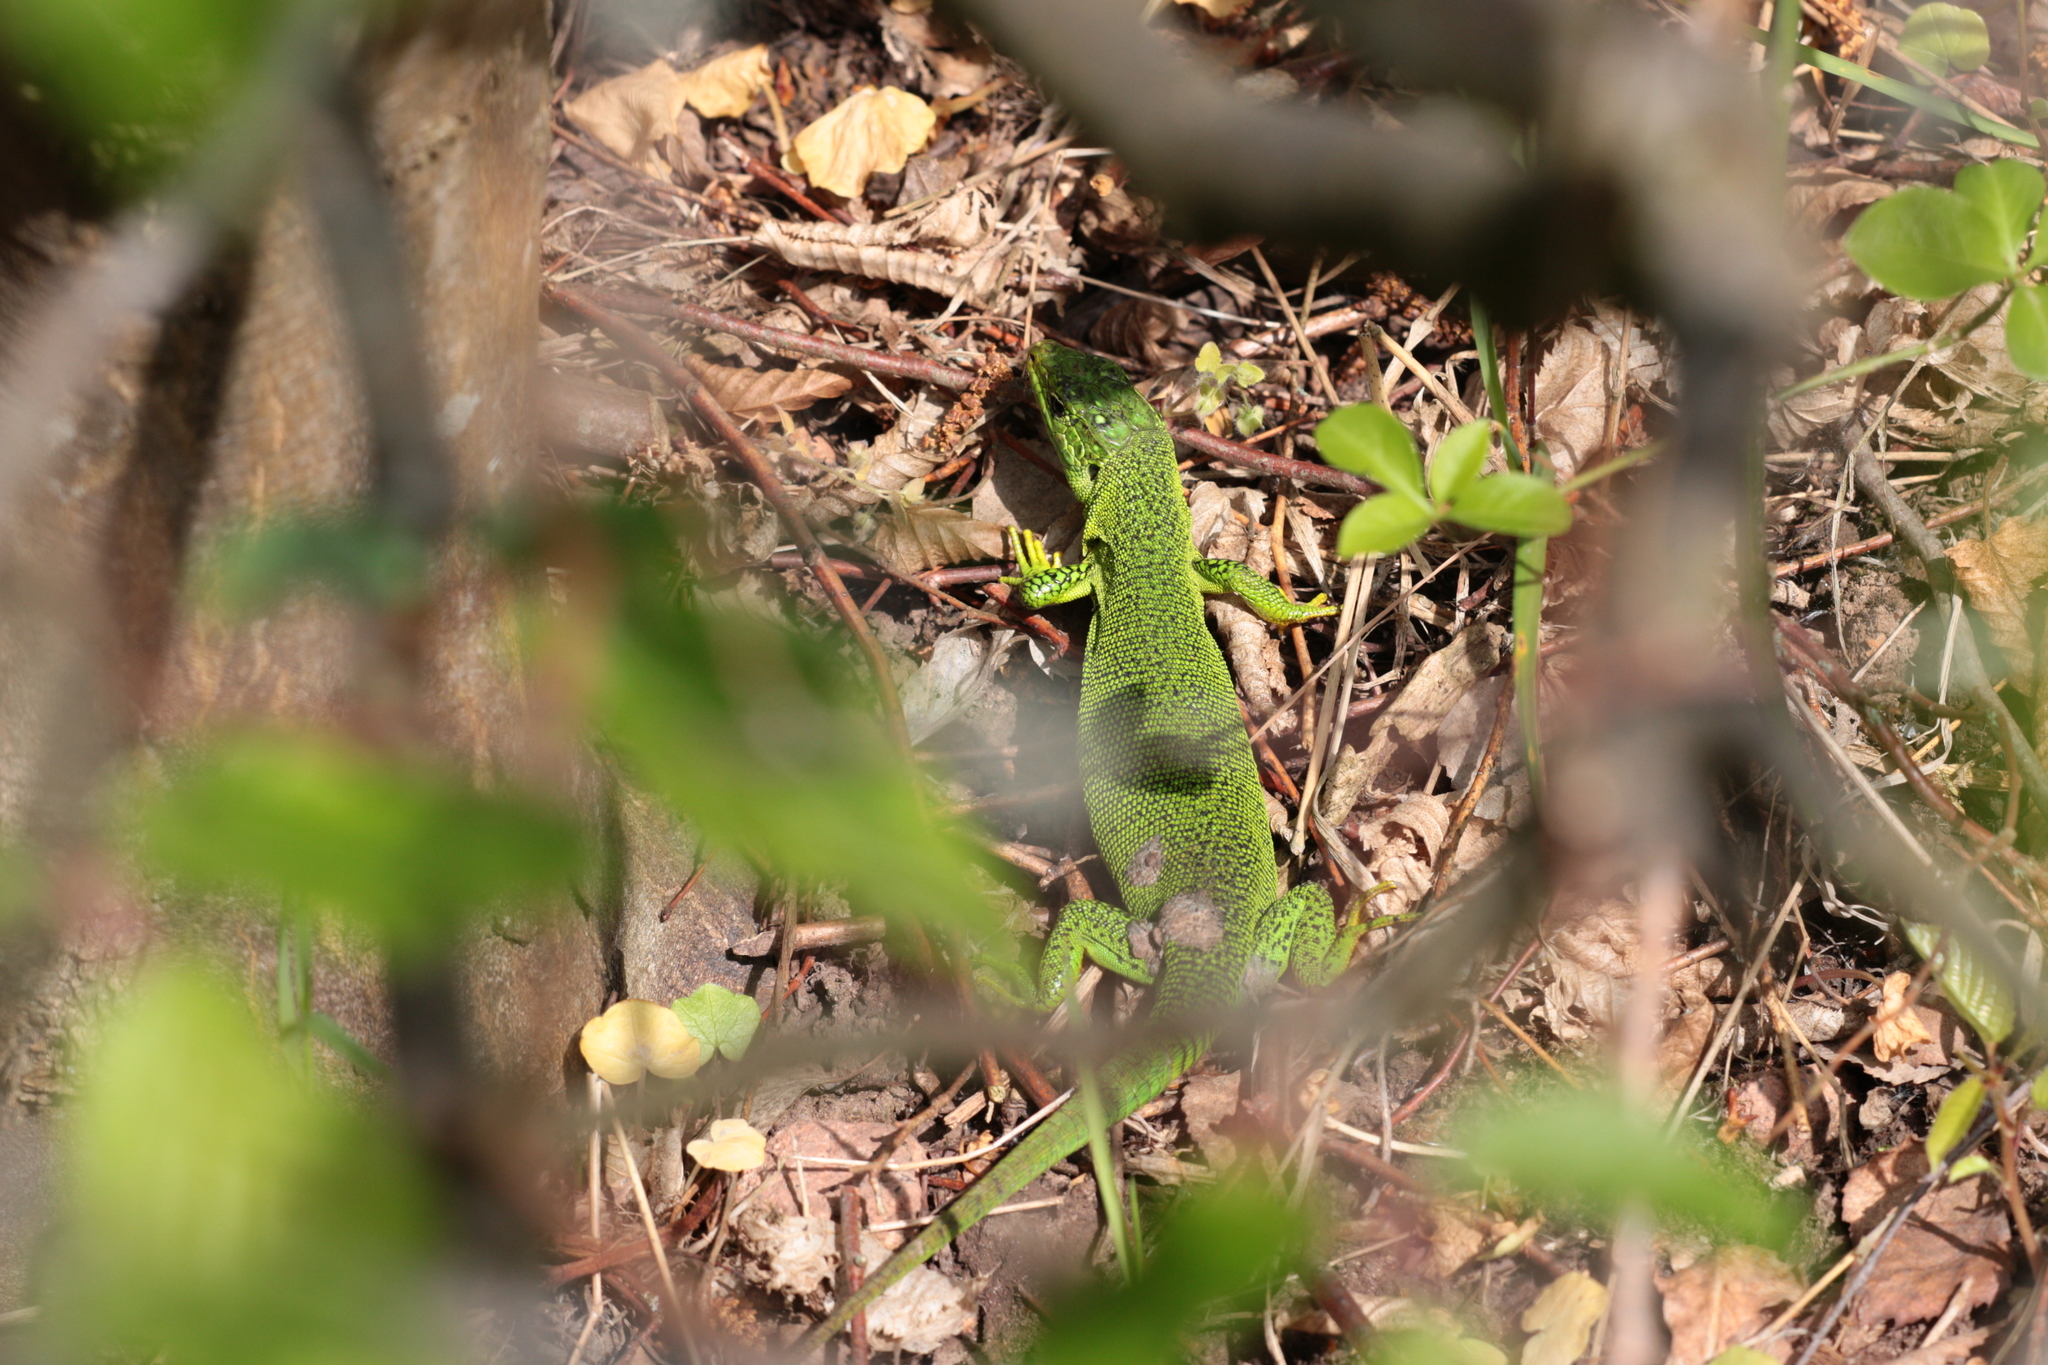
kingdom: Animalia
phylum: Chordata
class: Squamata
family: Lacertidae
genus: Lacerta
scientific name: Lacerta bilineata
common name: Western green lizard
